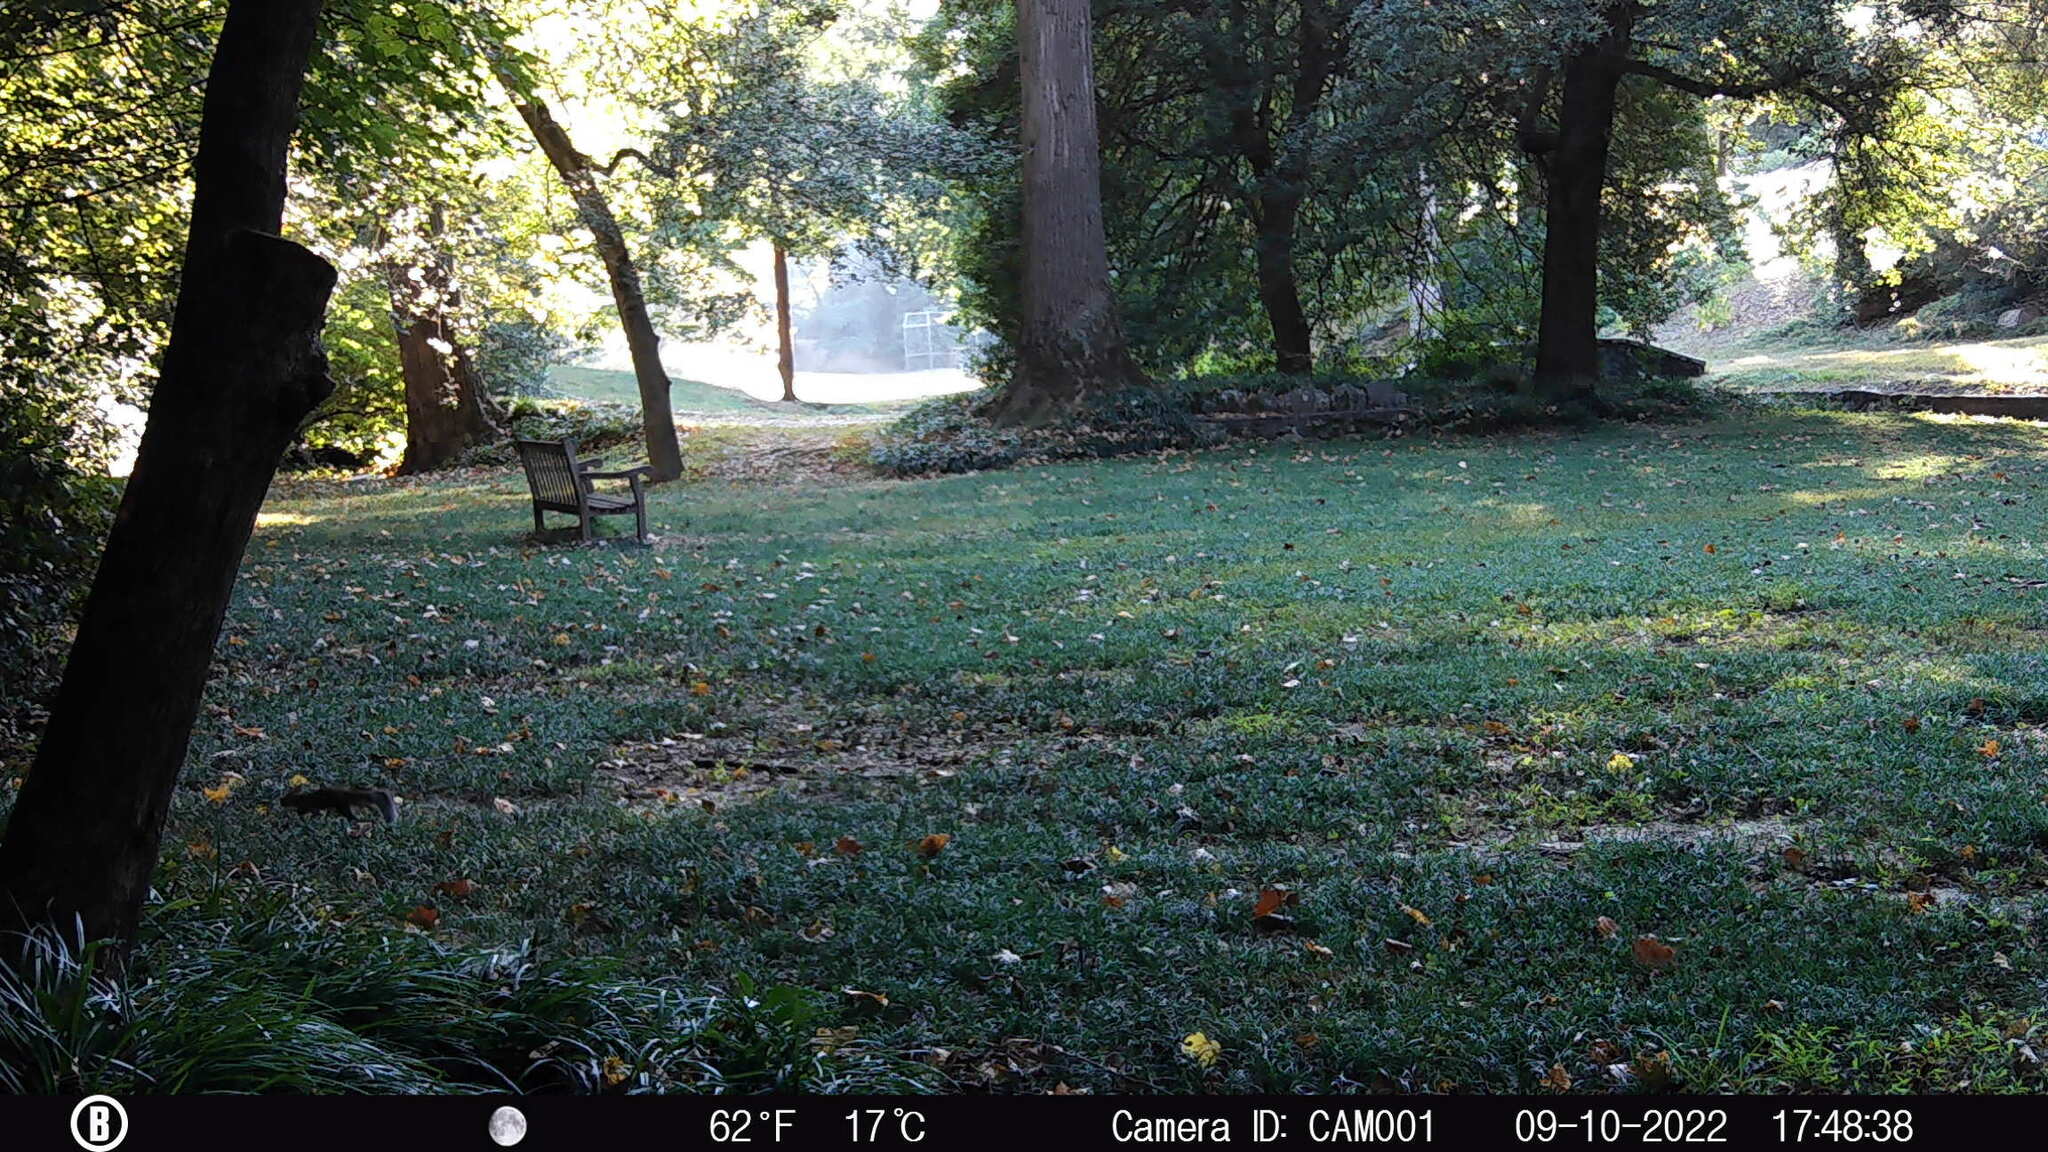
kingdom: Animalia
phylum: Chordata
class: Mammalia
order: Rodentia
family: Sciuridae
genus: Sciurus
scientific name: Sciurus carolinensis
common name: Eastern gray squirrel
